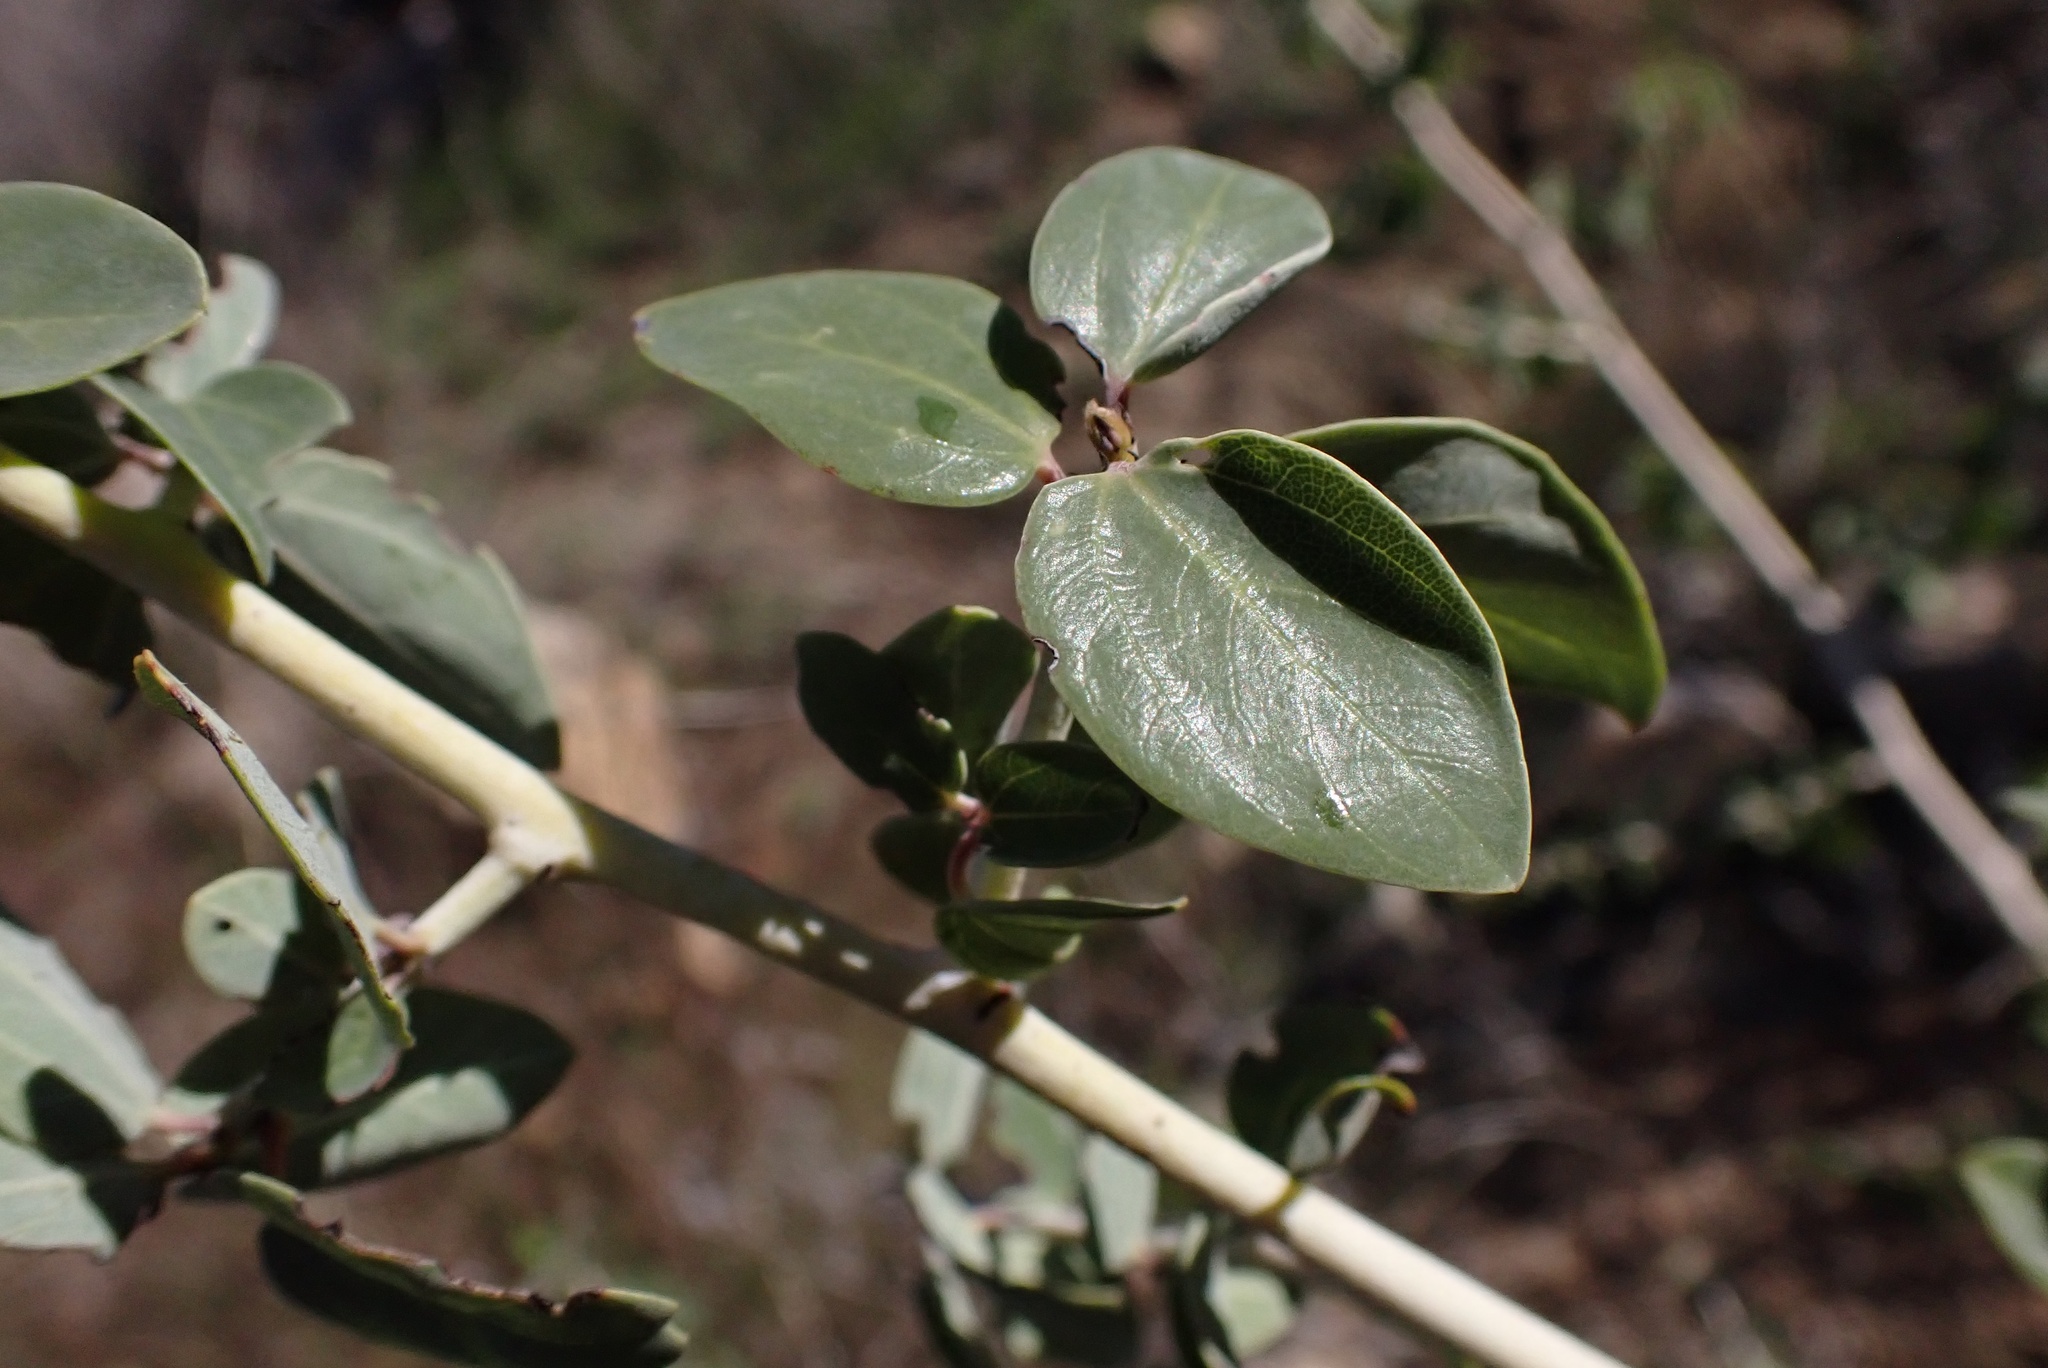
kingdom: Plantae
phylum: Tracheophyta
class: Magnoliopsida
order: Rosales
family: Rhamnaceae
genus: Ceanothus
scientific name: Ceanothus leucodermis
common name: Chaparral whitethorn
